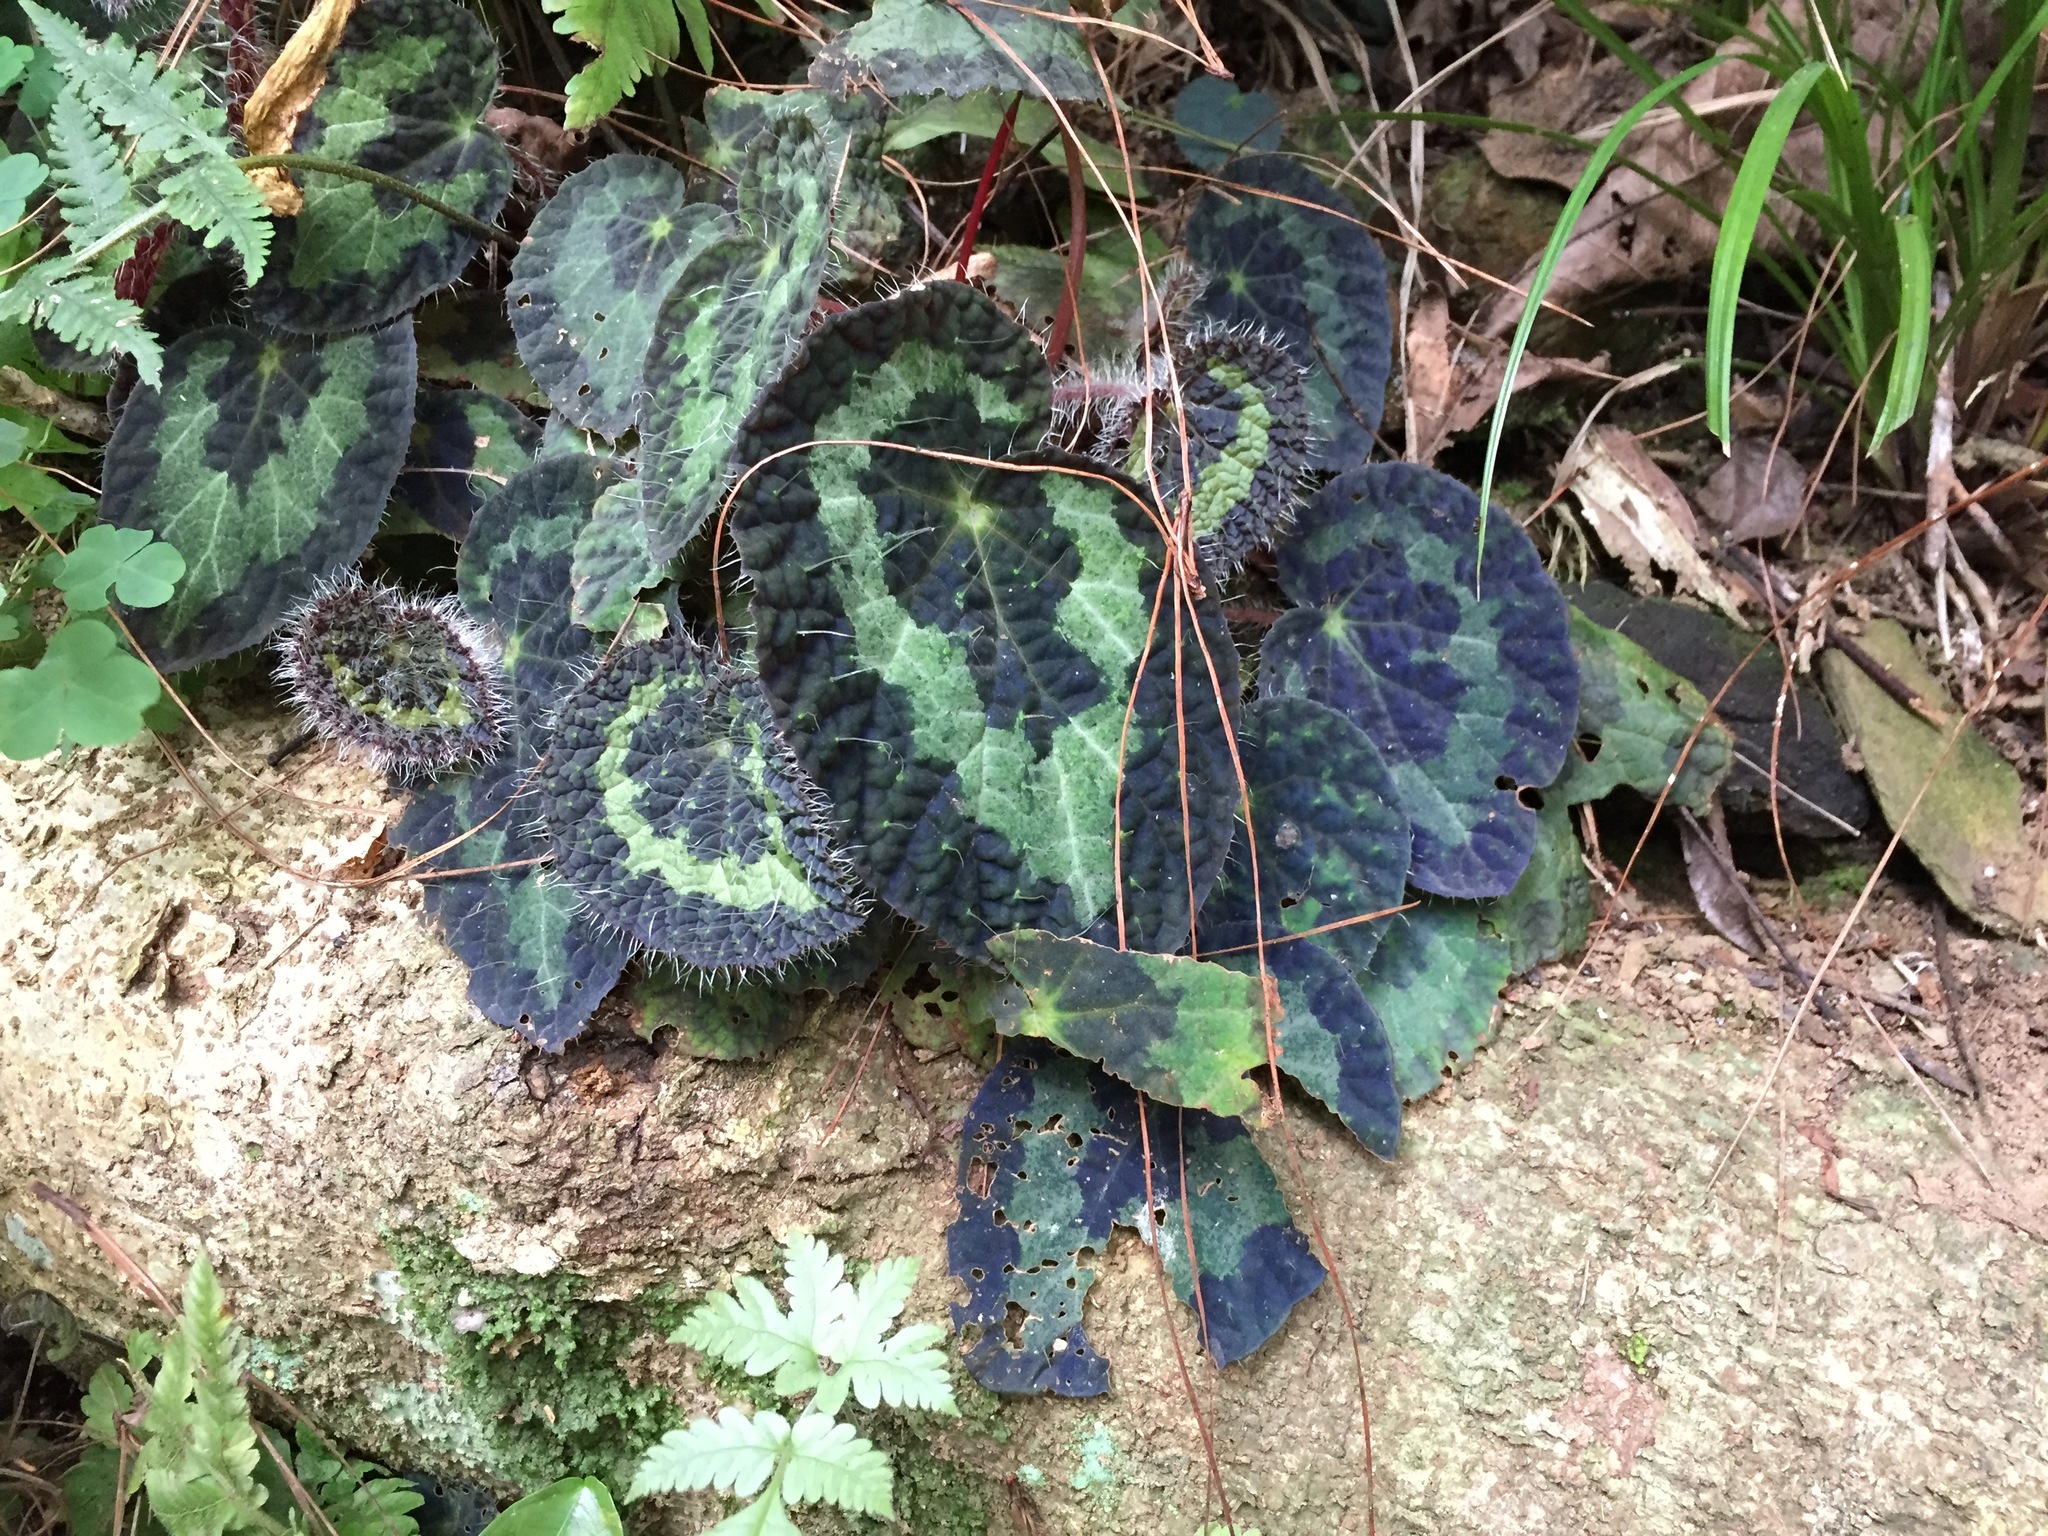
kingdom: Plantae
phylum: Tracheophyta
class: Magnoliopsida
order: Cucurbitales
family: Begoniaceae
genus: Begonia
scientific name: Begonia longiciliata
